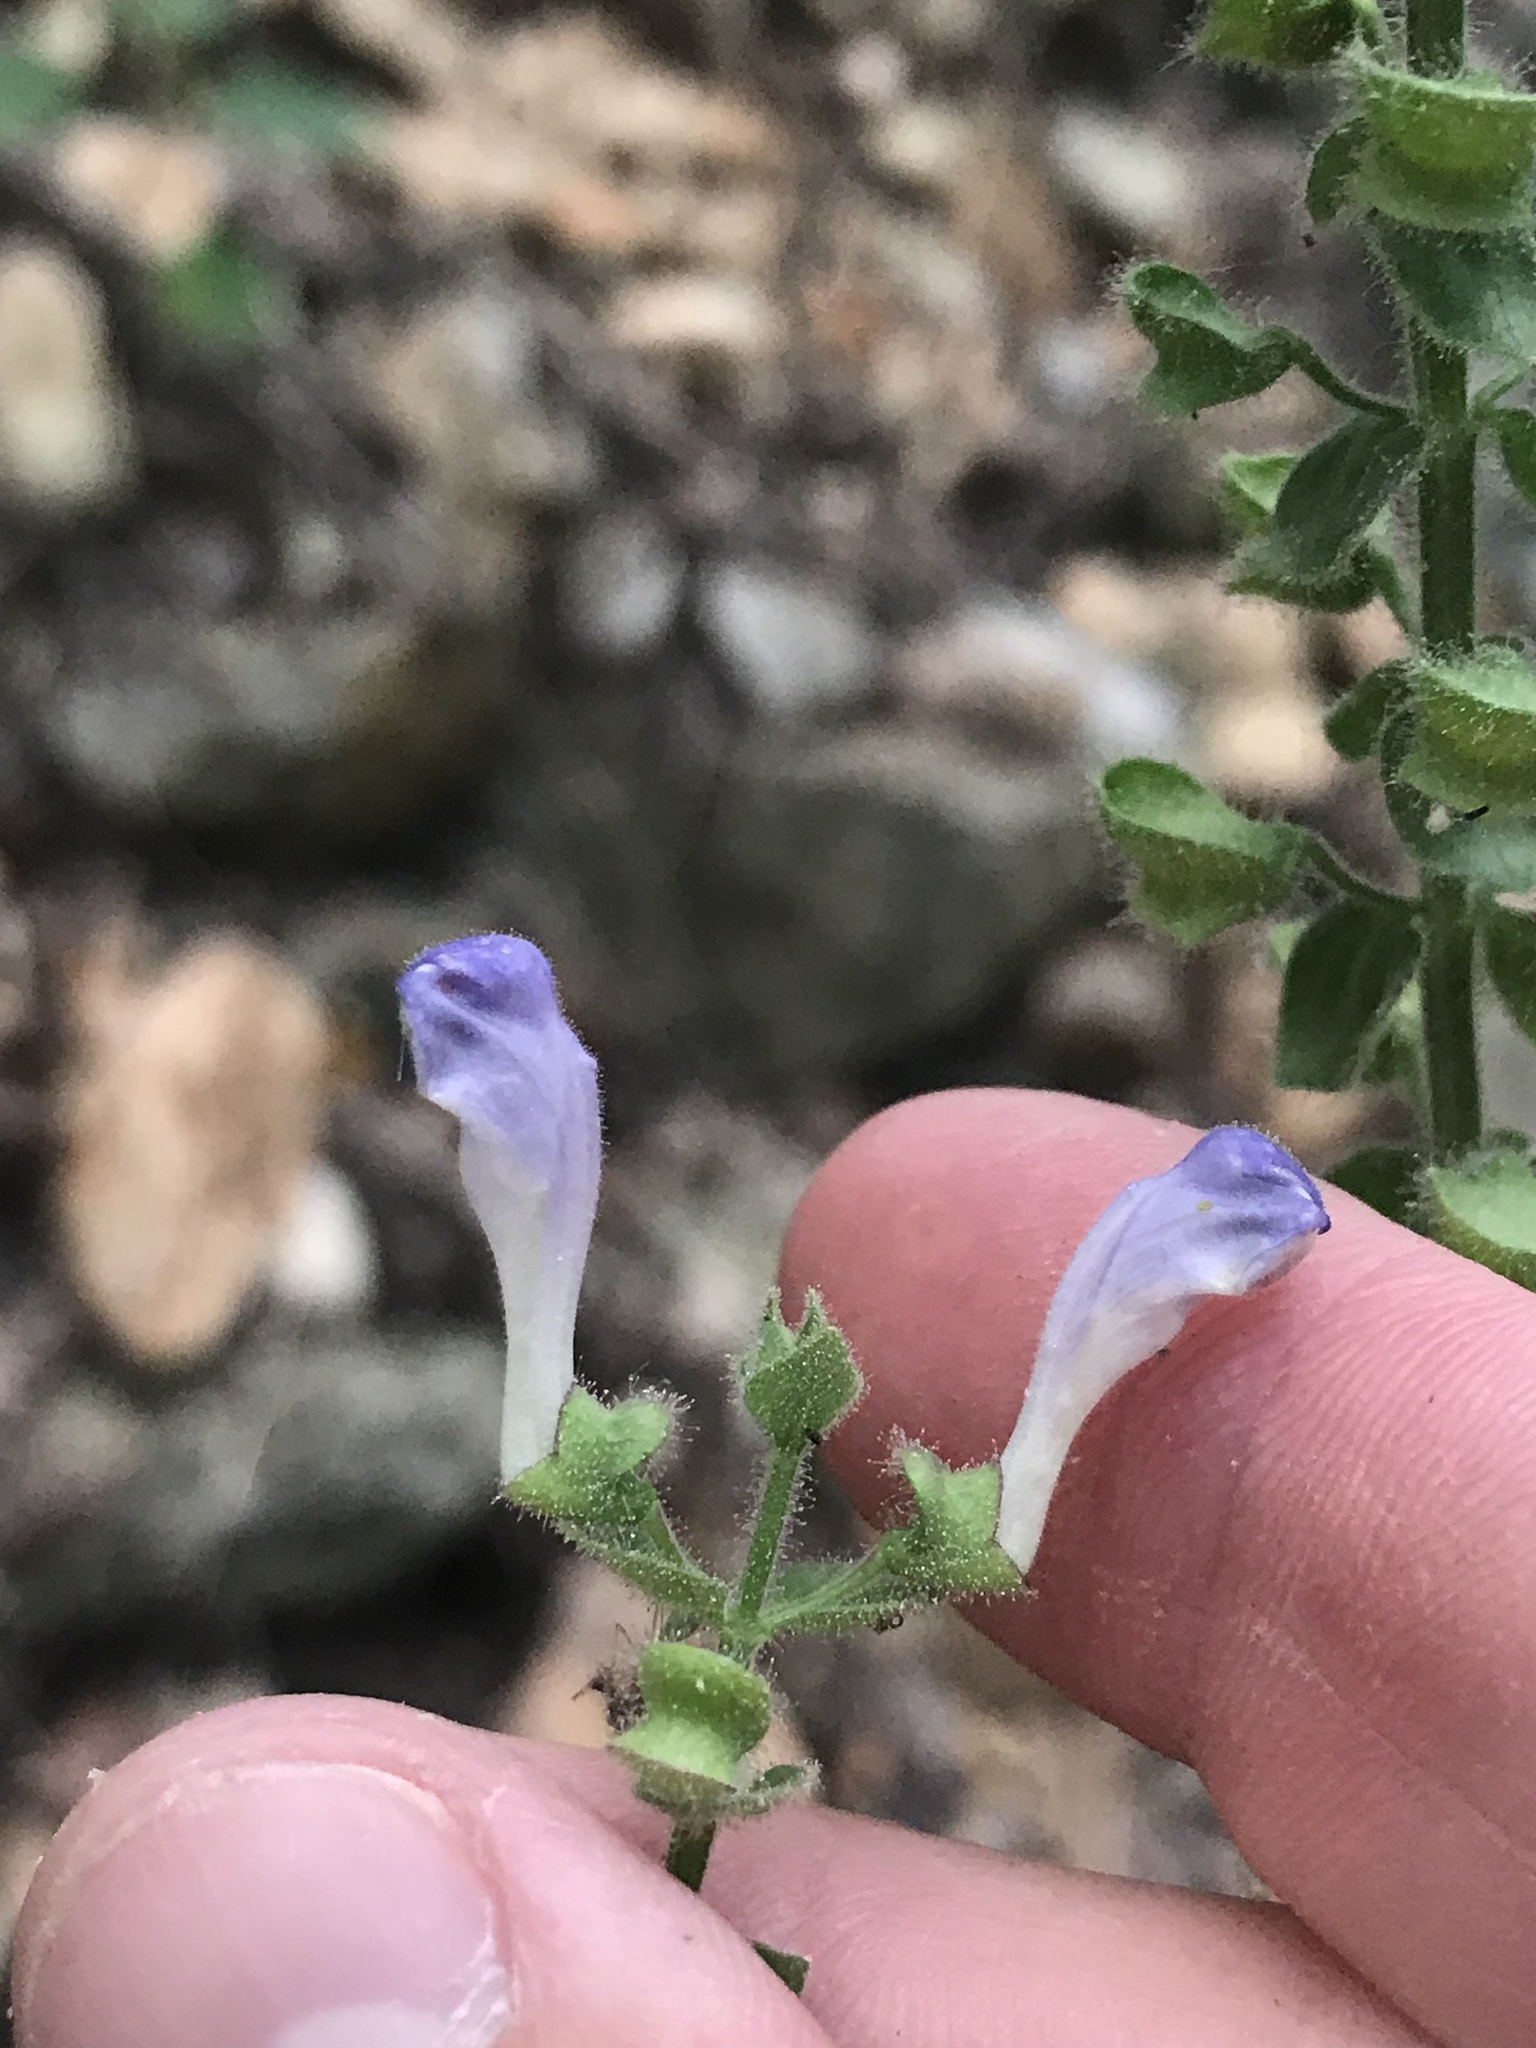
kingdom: Plantae
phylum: Tracheophyta
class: Magnoliopsida
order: Lamiales
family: Lamiaceae
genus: Scutellaria
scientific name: Scutellaria ovata
